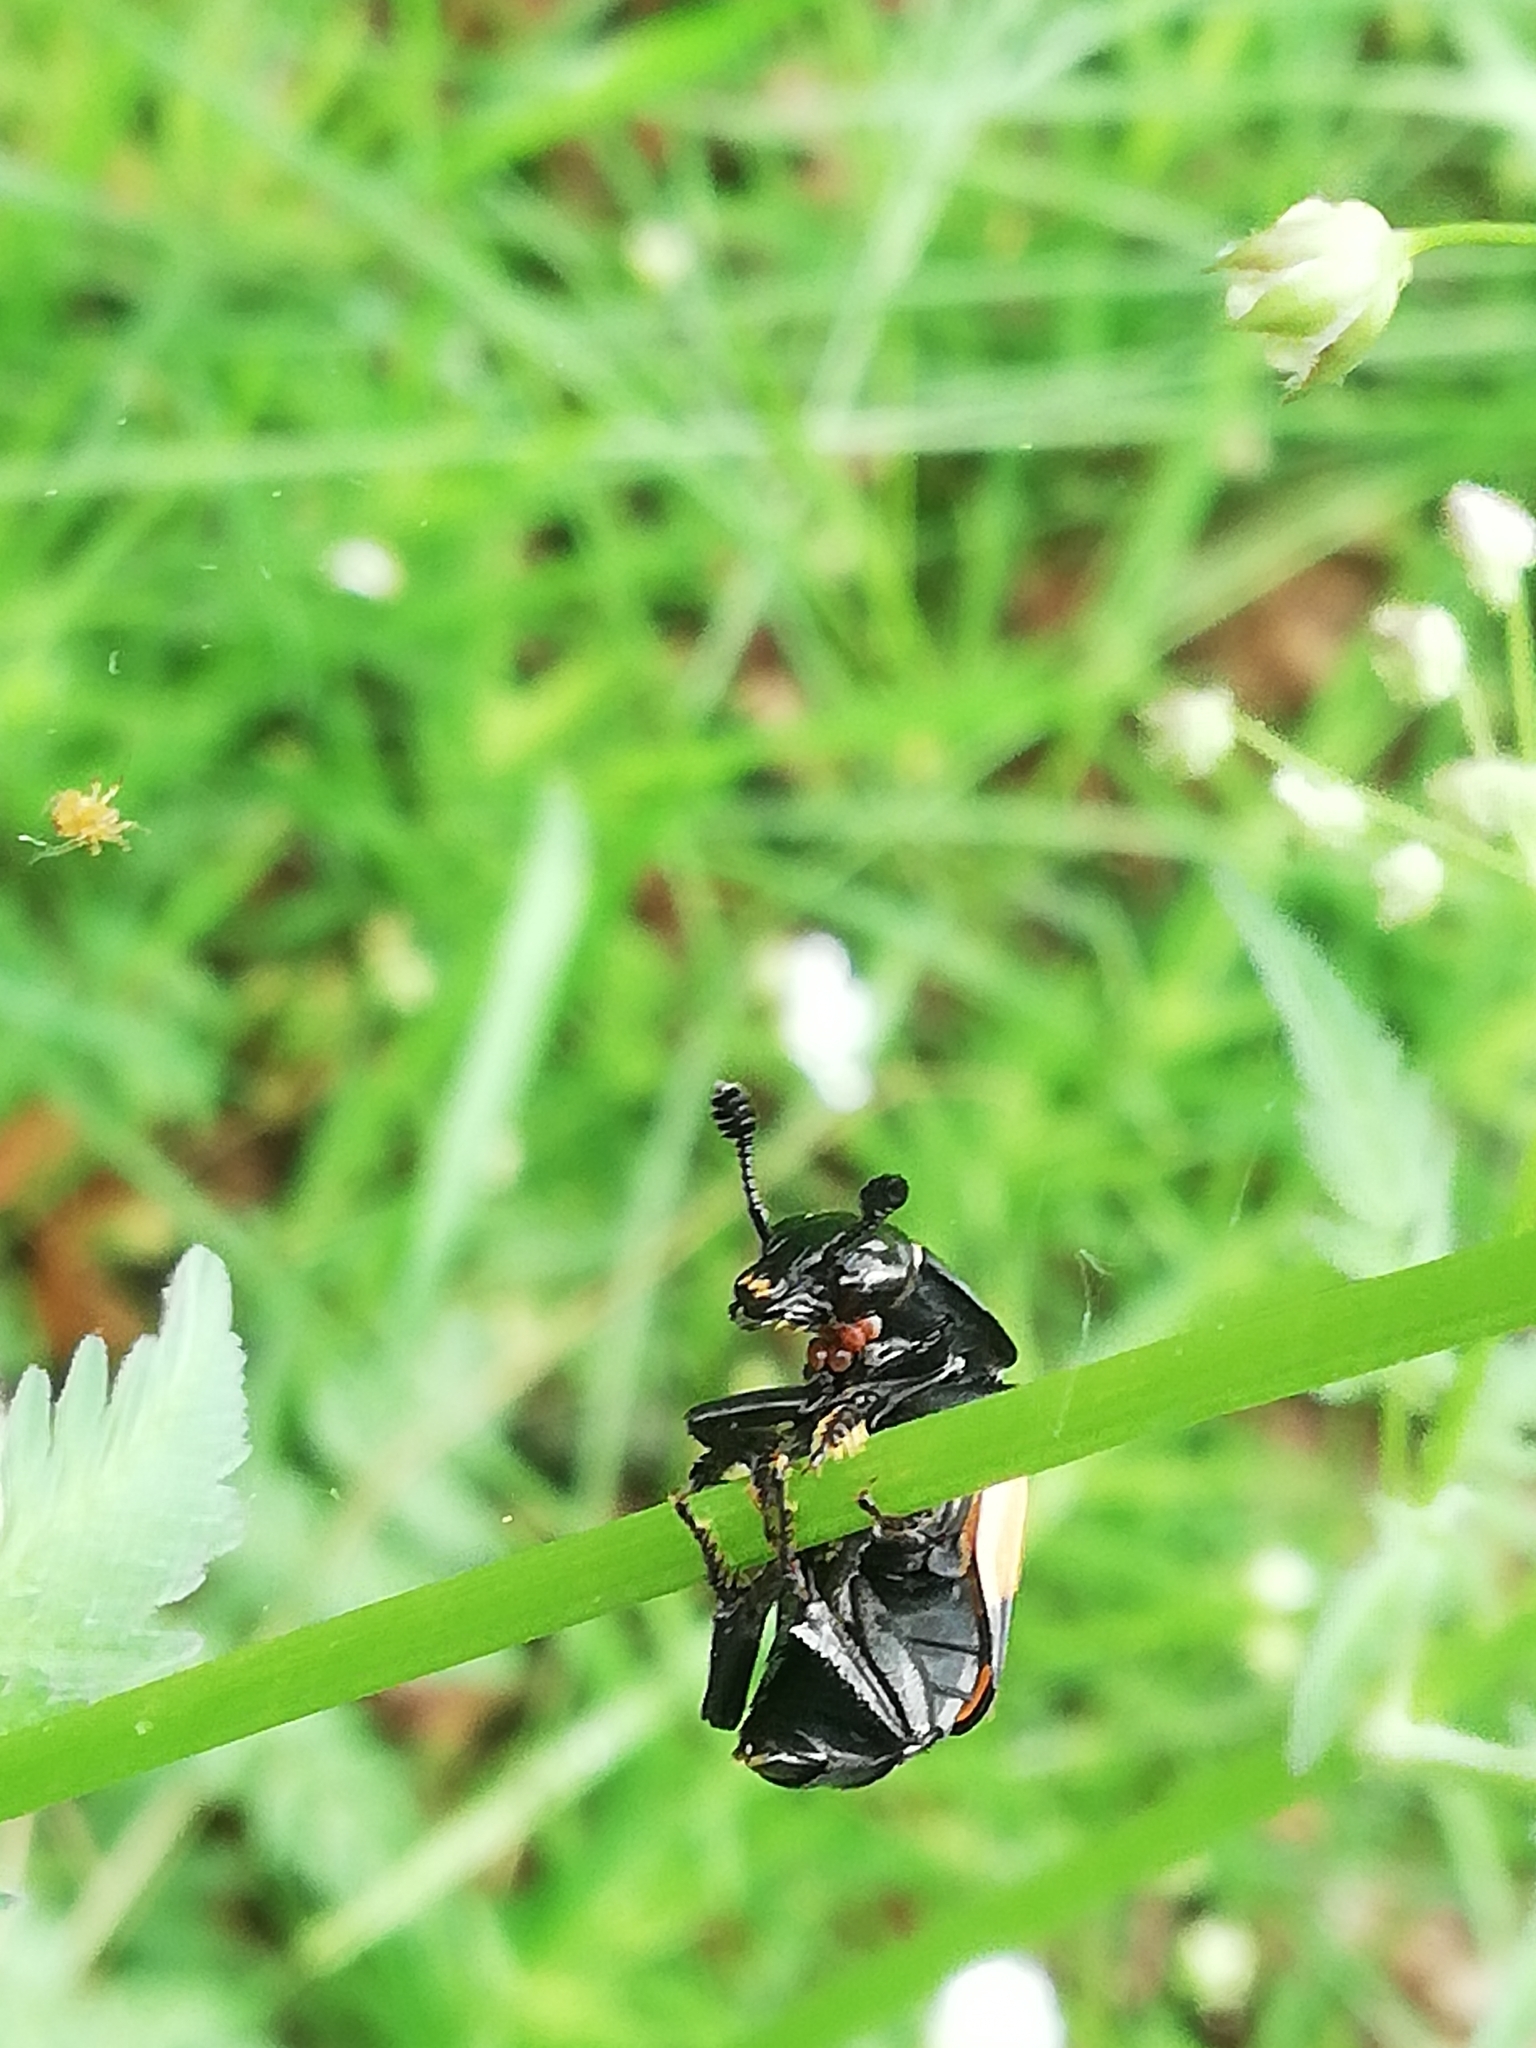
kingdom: Animalia
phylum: Arthropoda
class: Insecta
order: Coleoptera
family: Staphylinidae
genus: Nicrophorus
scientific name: Nicrophorus vespilloides
